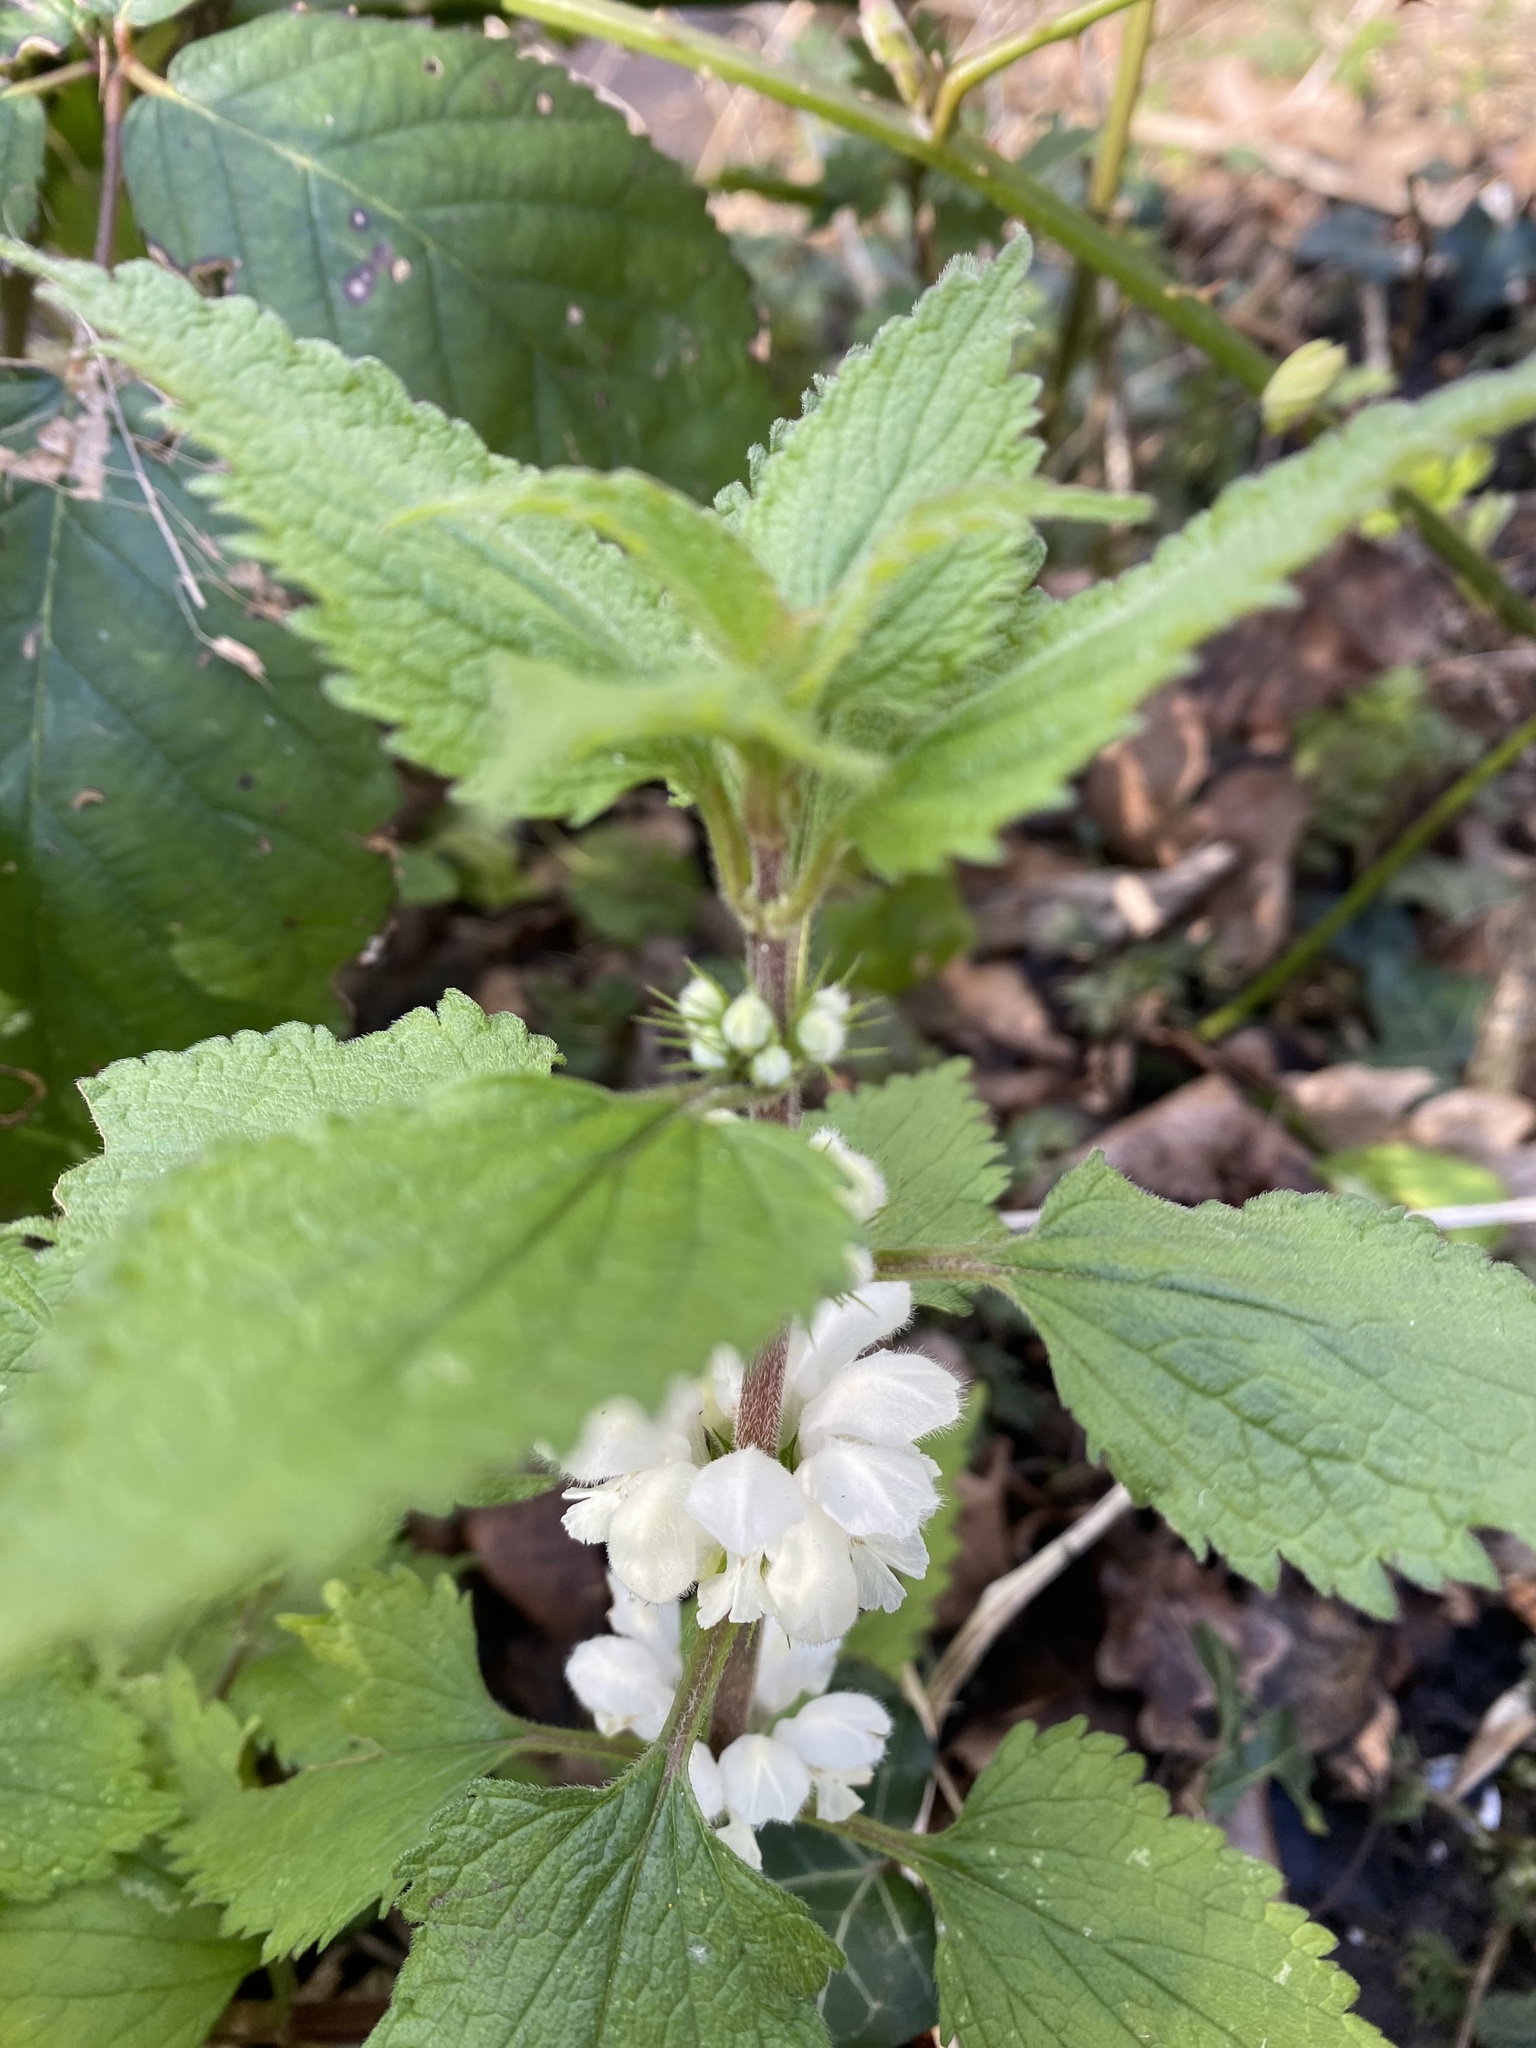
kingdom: Plantae
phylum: Tracheophyta
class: Magnoliopsida
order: Lamiales
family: Lamiaceae
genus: Lamium
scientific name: Lamium album
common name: White dead-nettle
